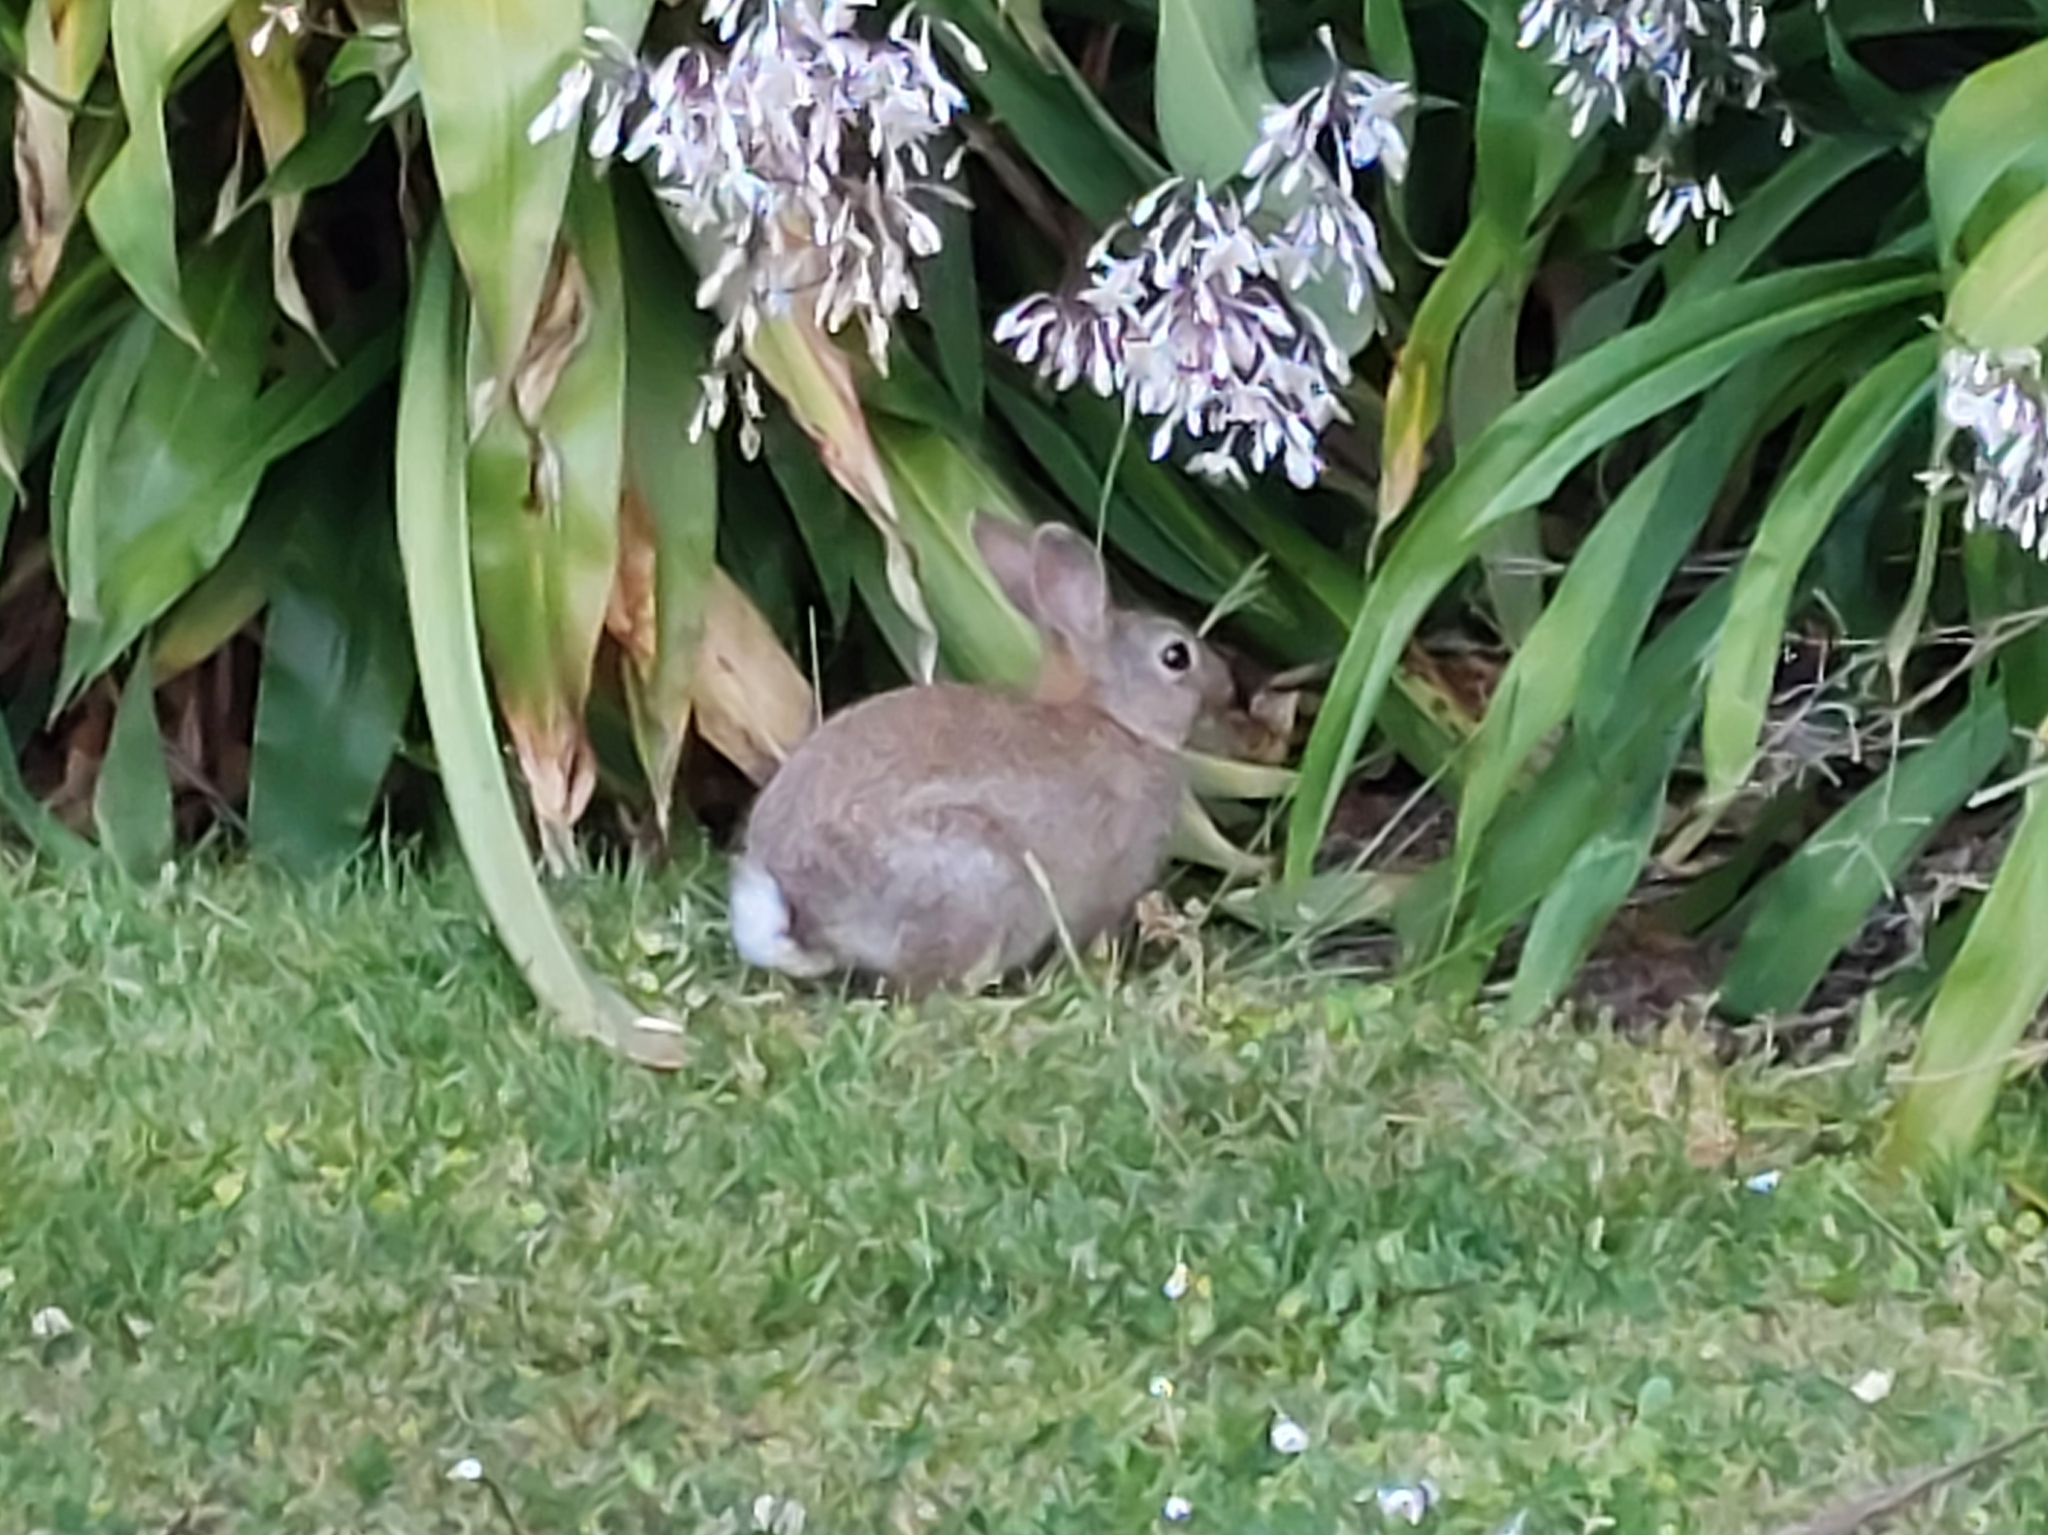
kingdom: Animalia
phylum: Chordata
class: Mammalia
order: Lagomorpha
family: Leporidae
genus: Oryctolagus
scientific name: Oryctolagus cuniculus
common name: European rabbit
